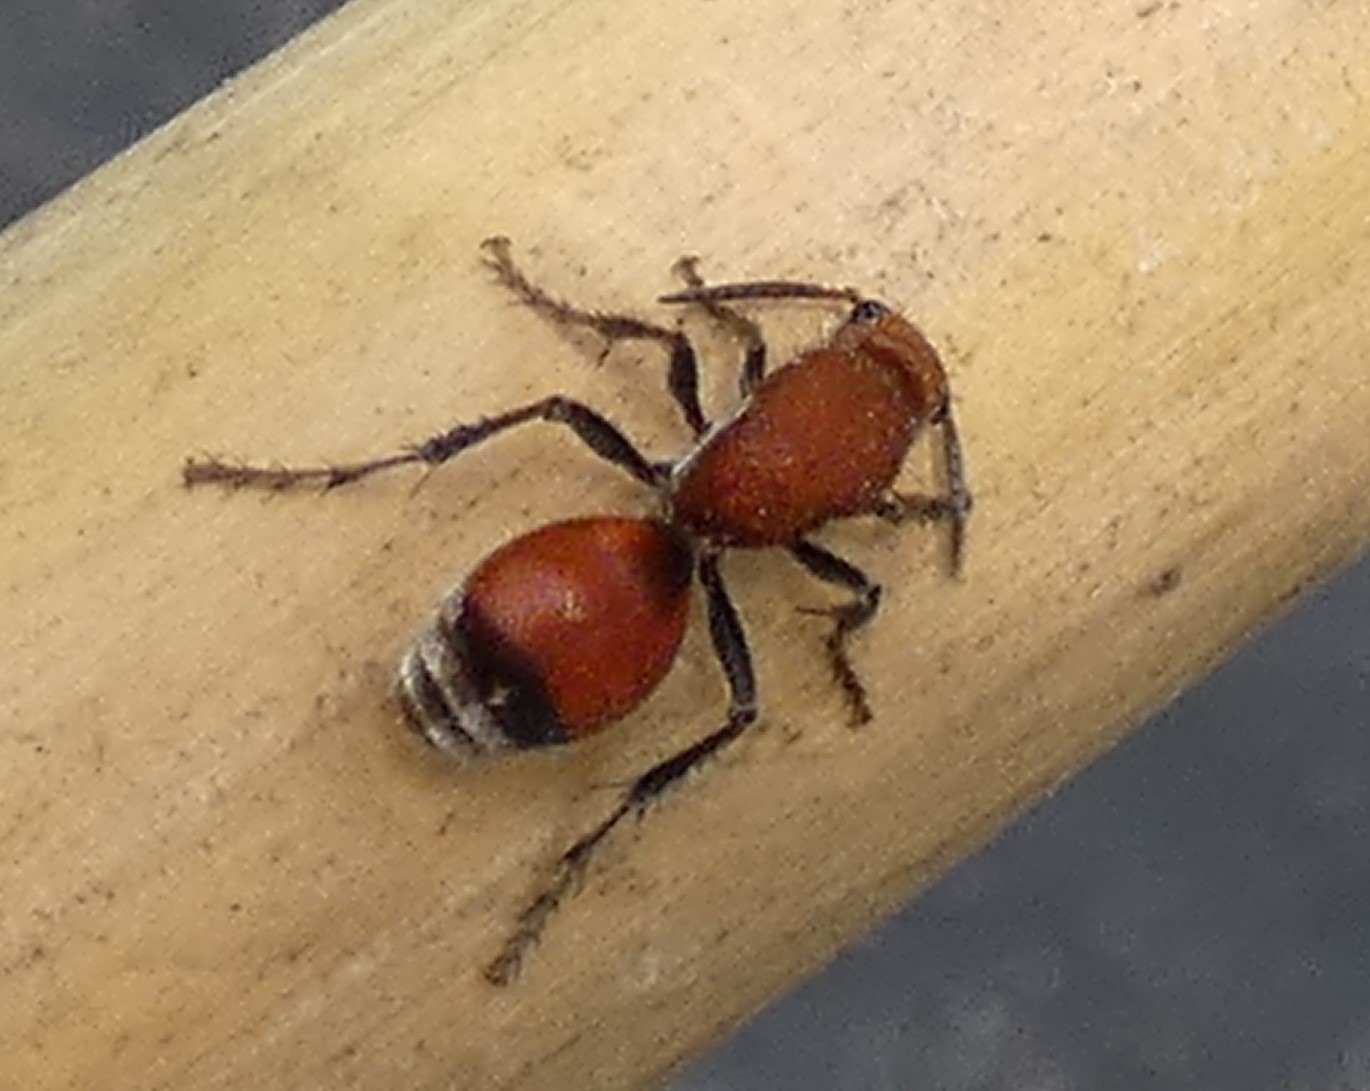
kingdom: Animalia
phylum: Arthropoda
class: Insecta
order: Hymenoptera
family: Mutillidae
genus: Dasymutilla
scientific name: Dasymutilla
